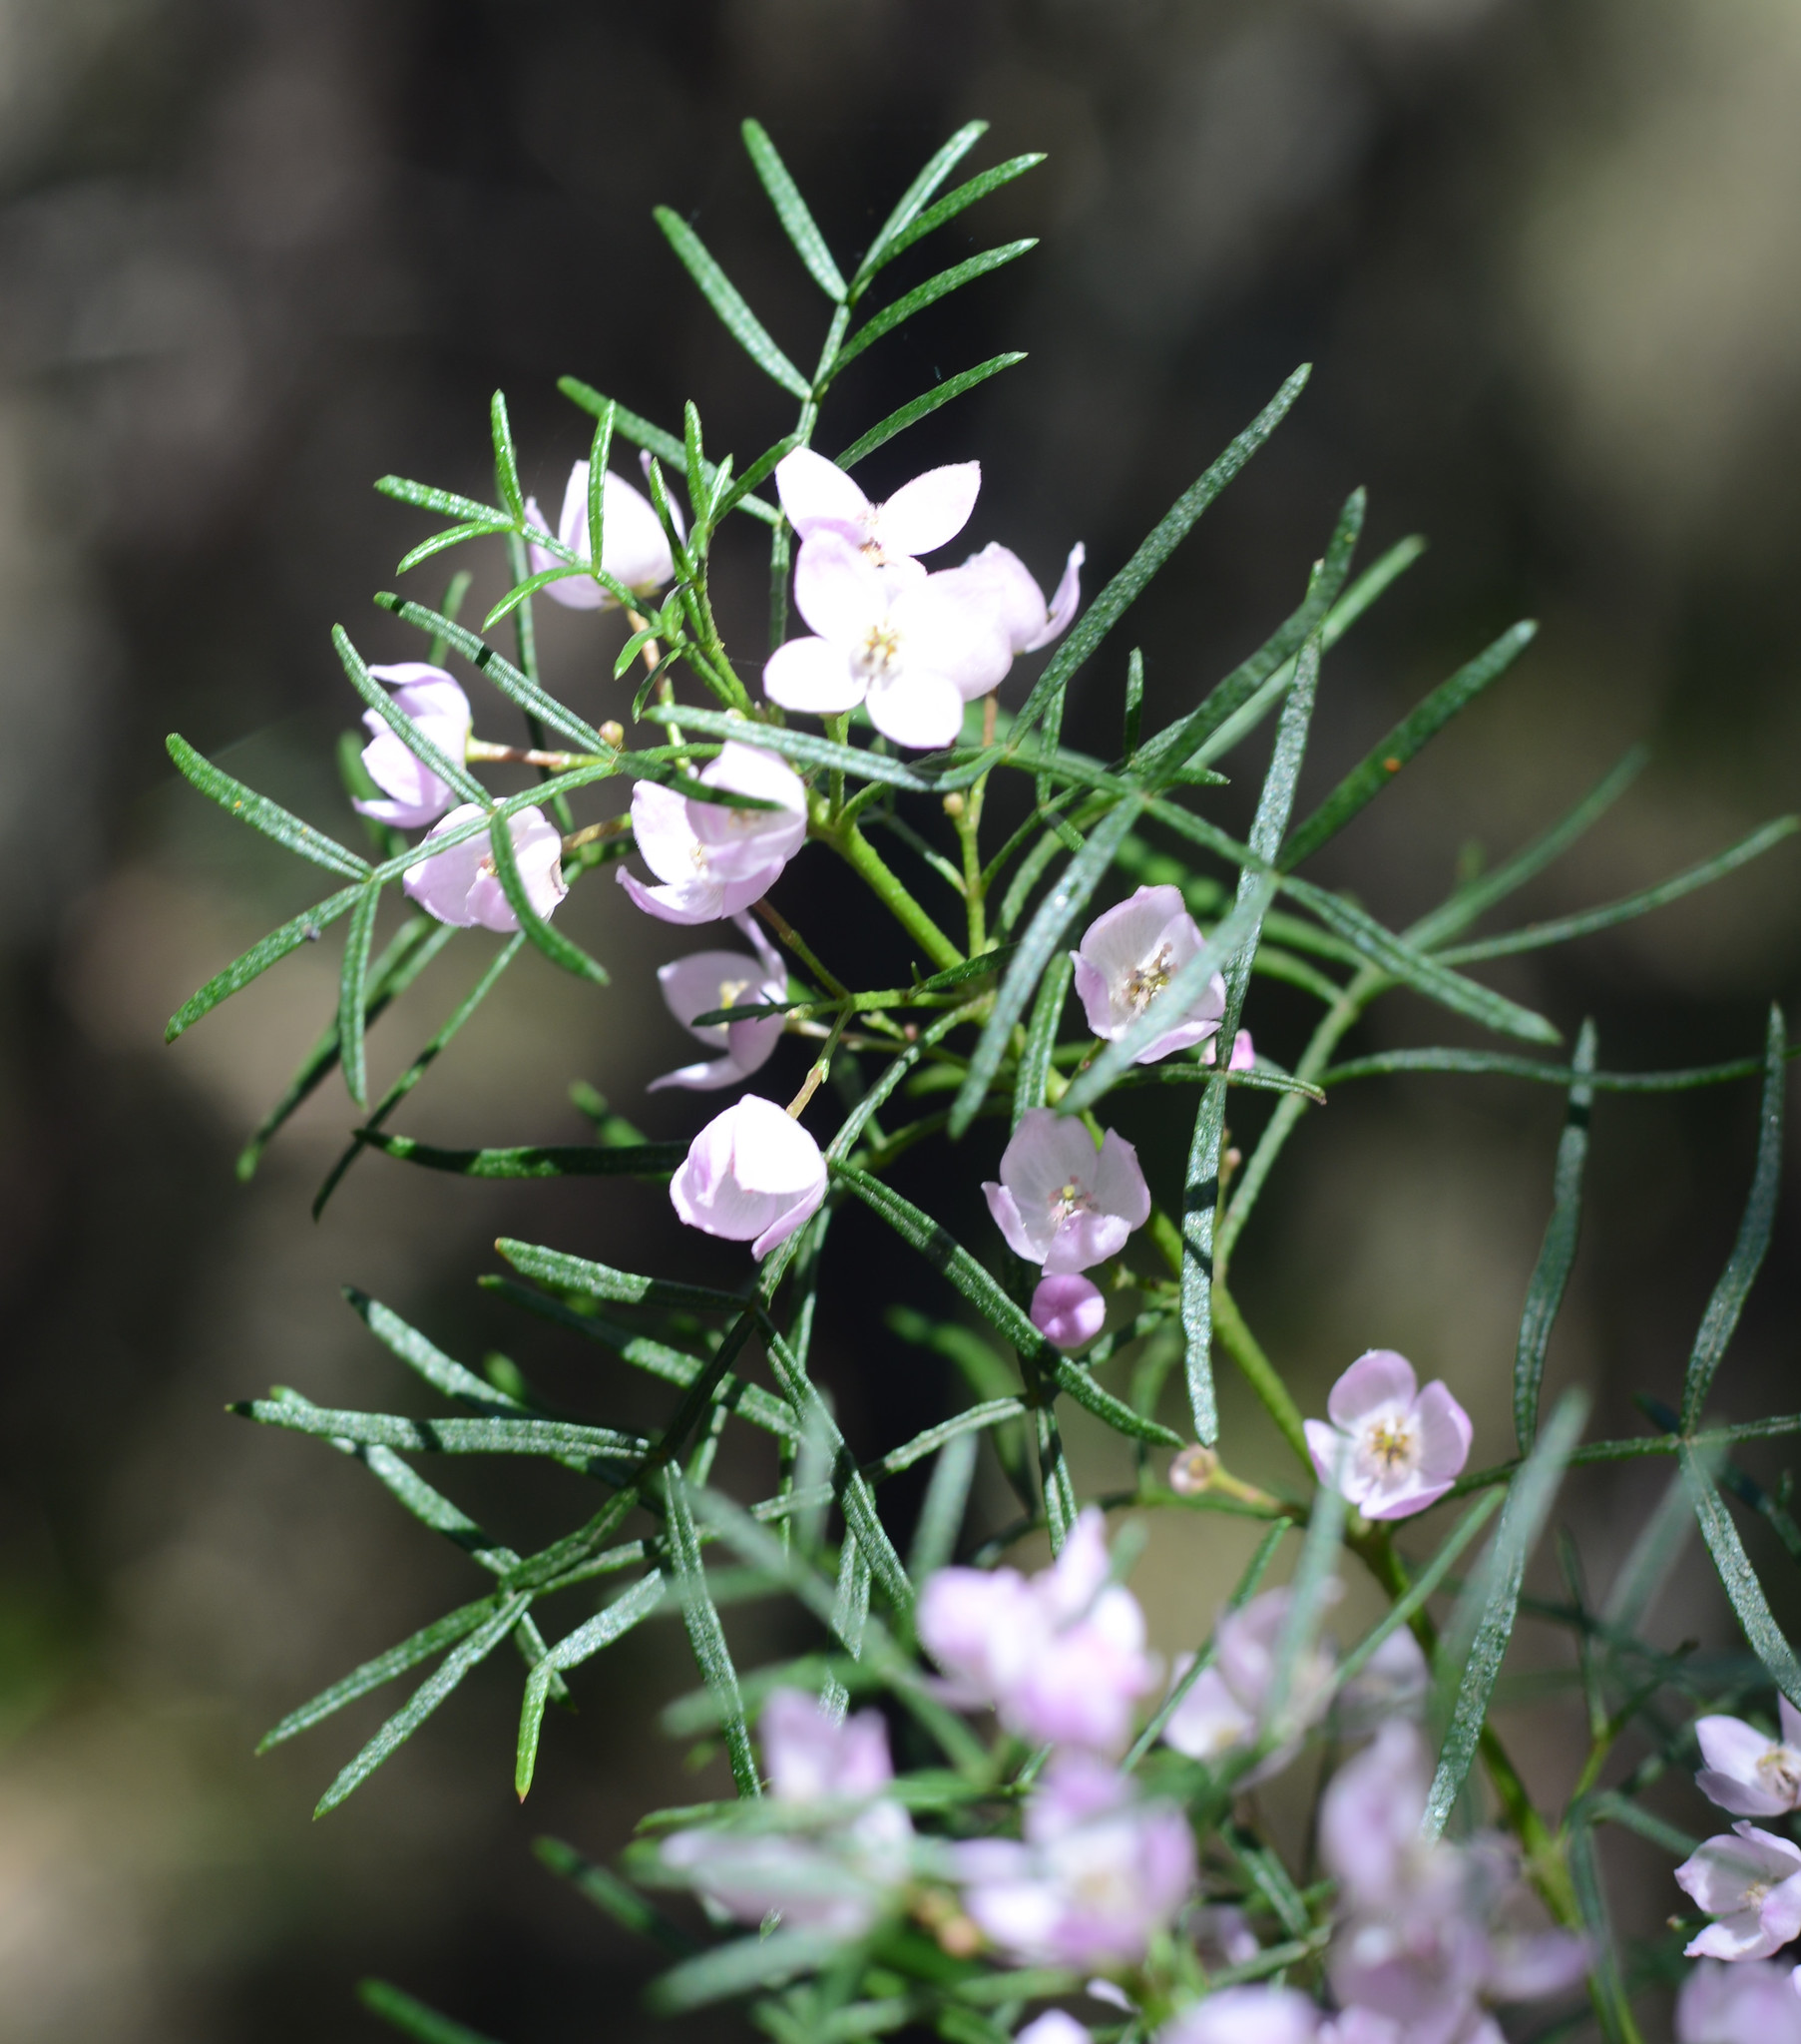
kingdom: Plantae
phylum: Tracheophyta
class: Magnoliopsida
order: Sapindales
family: Rutaceae
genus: Boronia
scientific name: Boronia thujona
